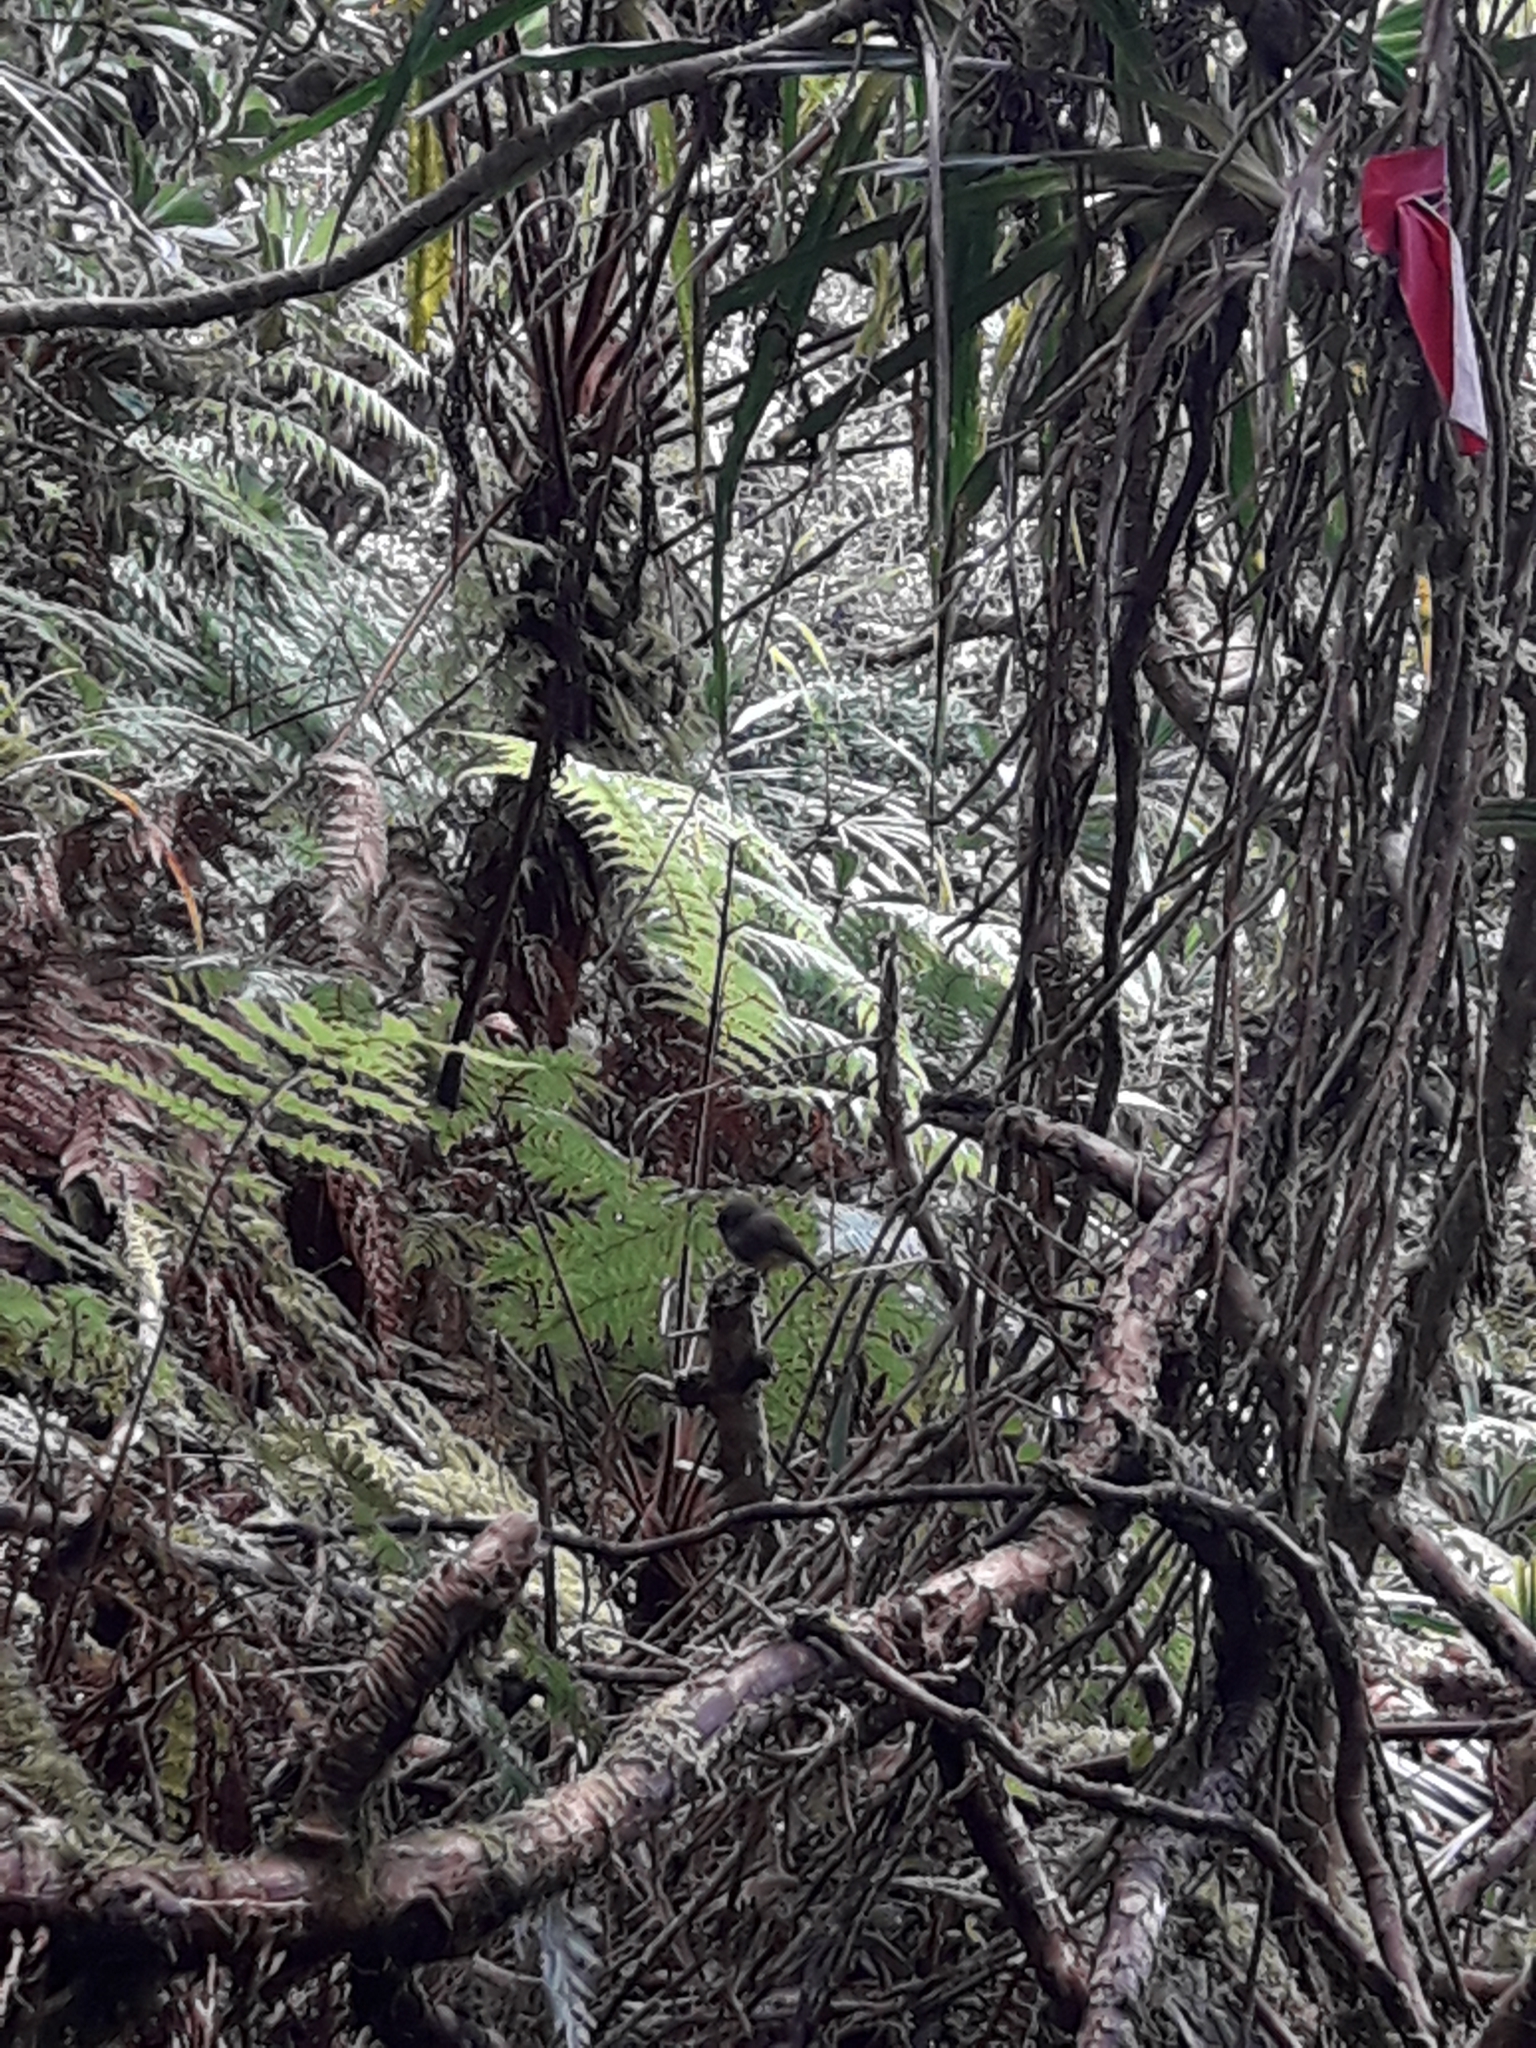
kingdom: Animalia
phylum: Chordata
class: Aves
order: Passeriformes
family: Petroicidae
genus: Microeca
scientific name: Microeca flaviventris
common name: Yellow-bellied flyrobin
